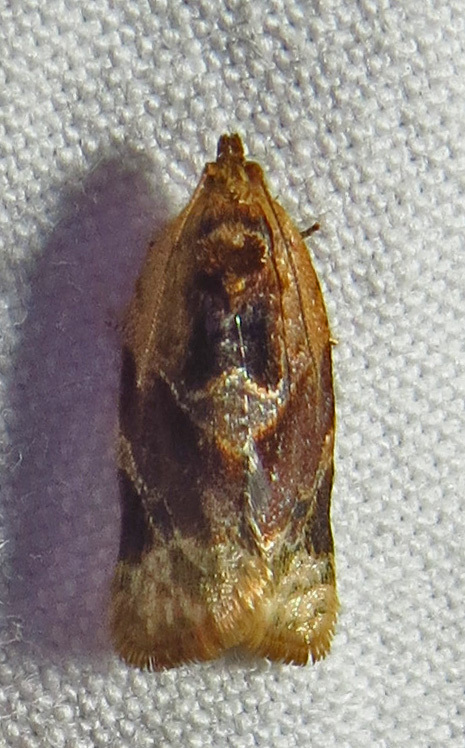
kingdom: Animalia
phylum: Arthropoda
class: Insecta
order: Lepidoptera
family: Tortricidae
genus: Argyrotaenia
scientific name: Argyrotaenia velutinana
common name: Red-banded leafroller moth
